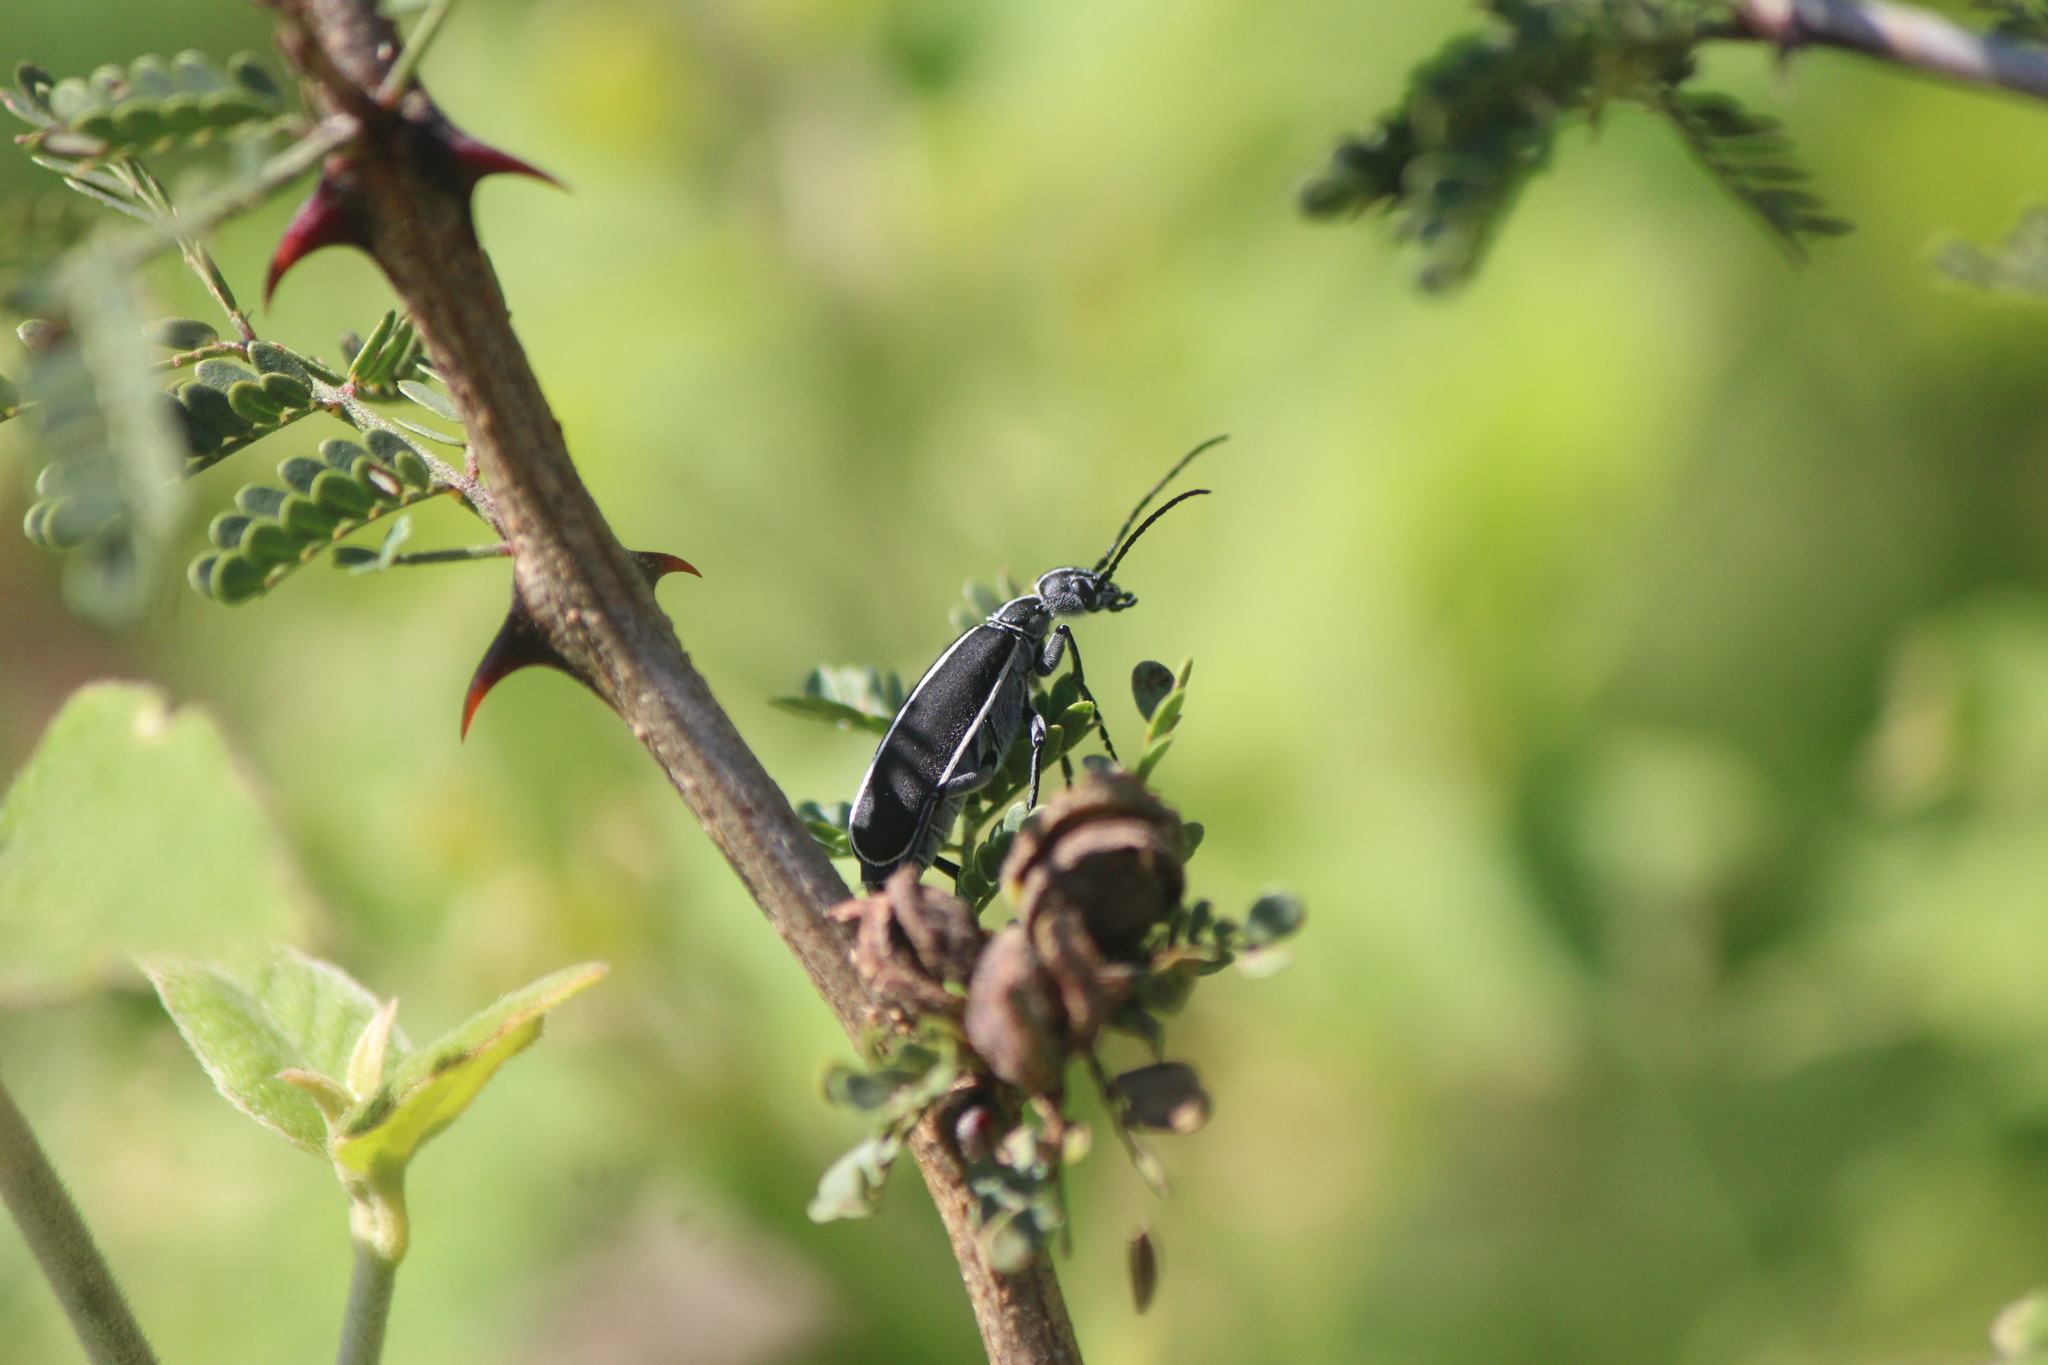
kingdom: Animalia
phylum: Arthropoda
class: Insecta
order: Coleoptera
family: Meloidae
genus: Epicauta
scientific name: Epicauta cinctipennis
